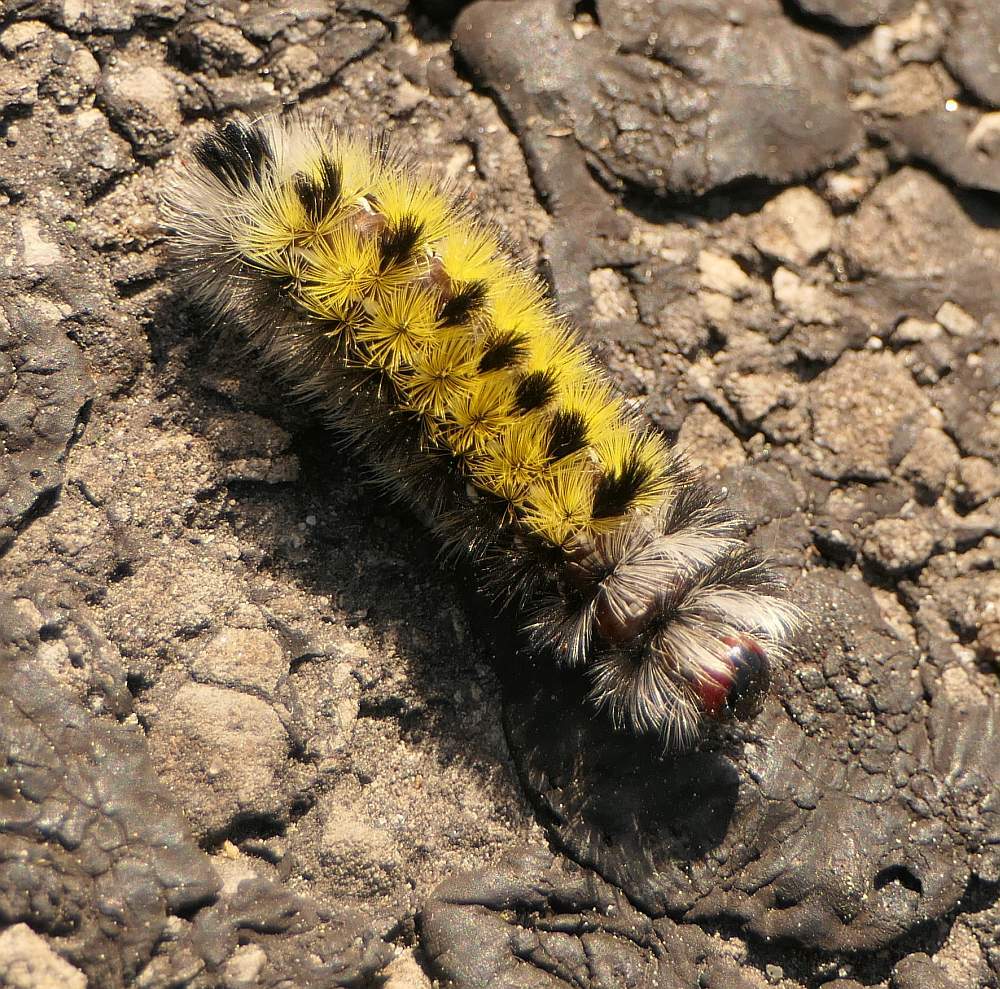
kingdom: Animalia
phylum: Arthropoda
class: Insecta
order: Lepidoptera
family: Erebidae
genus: Ctenucha
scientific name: Ctenucha virginica
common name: Virginia ctenucha moth
